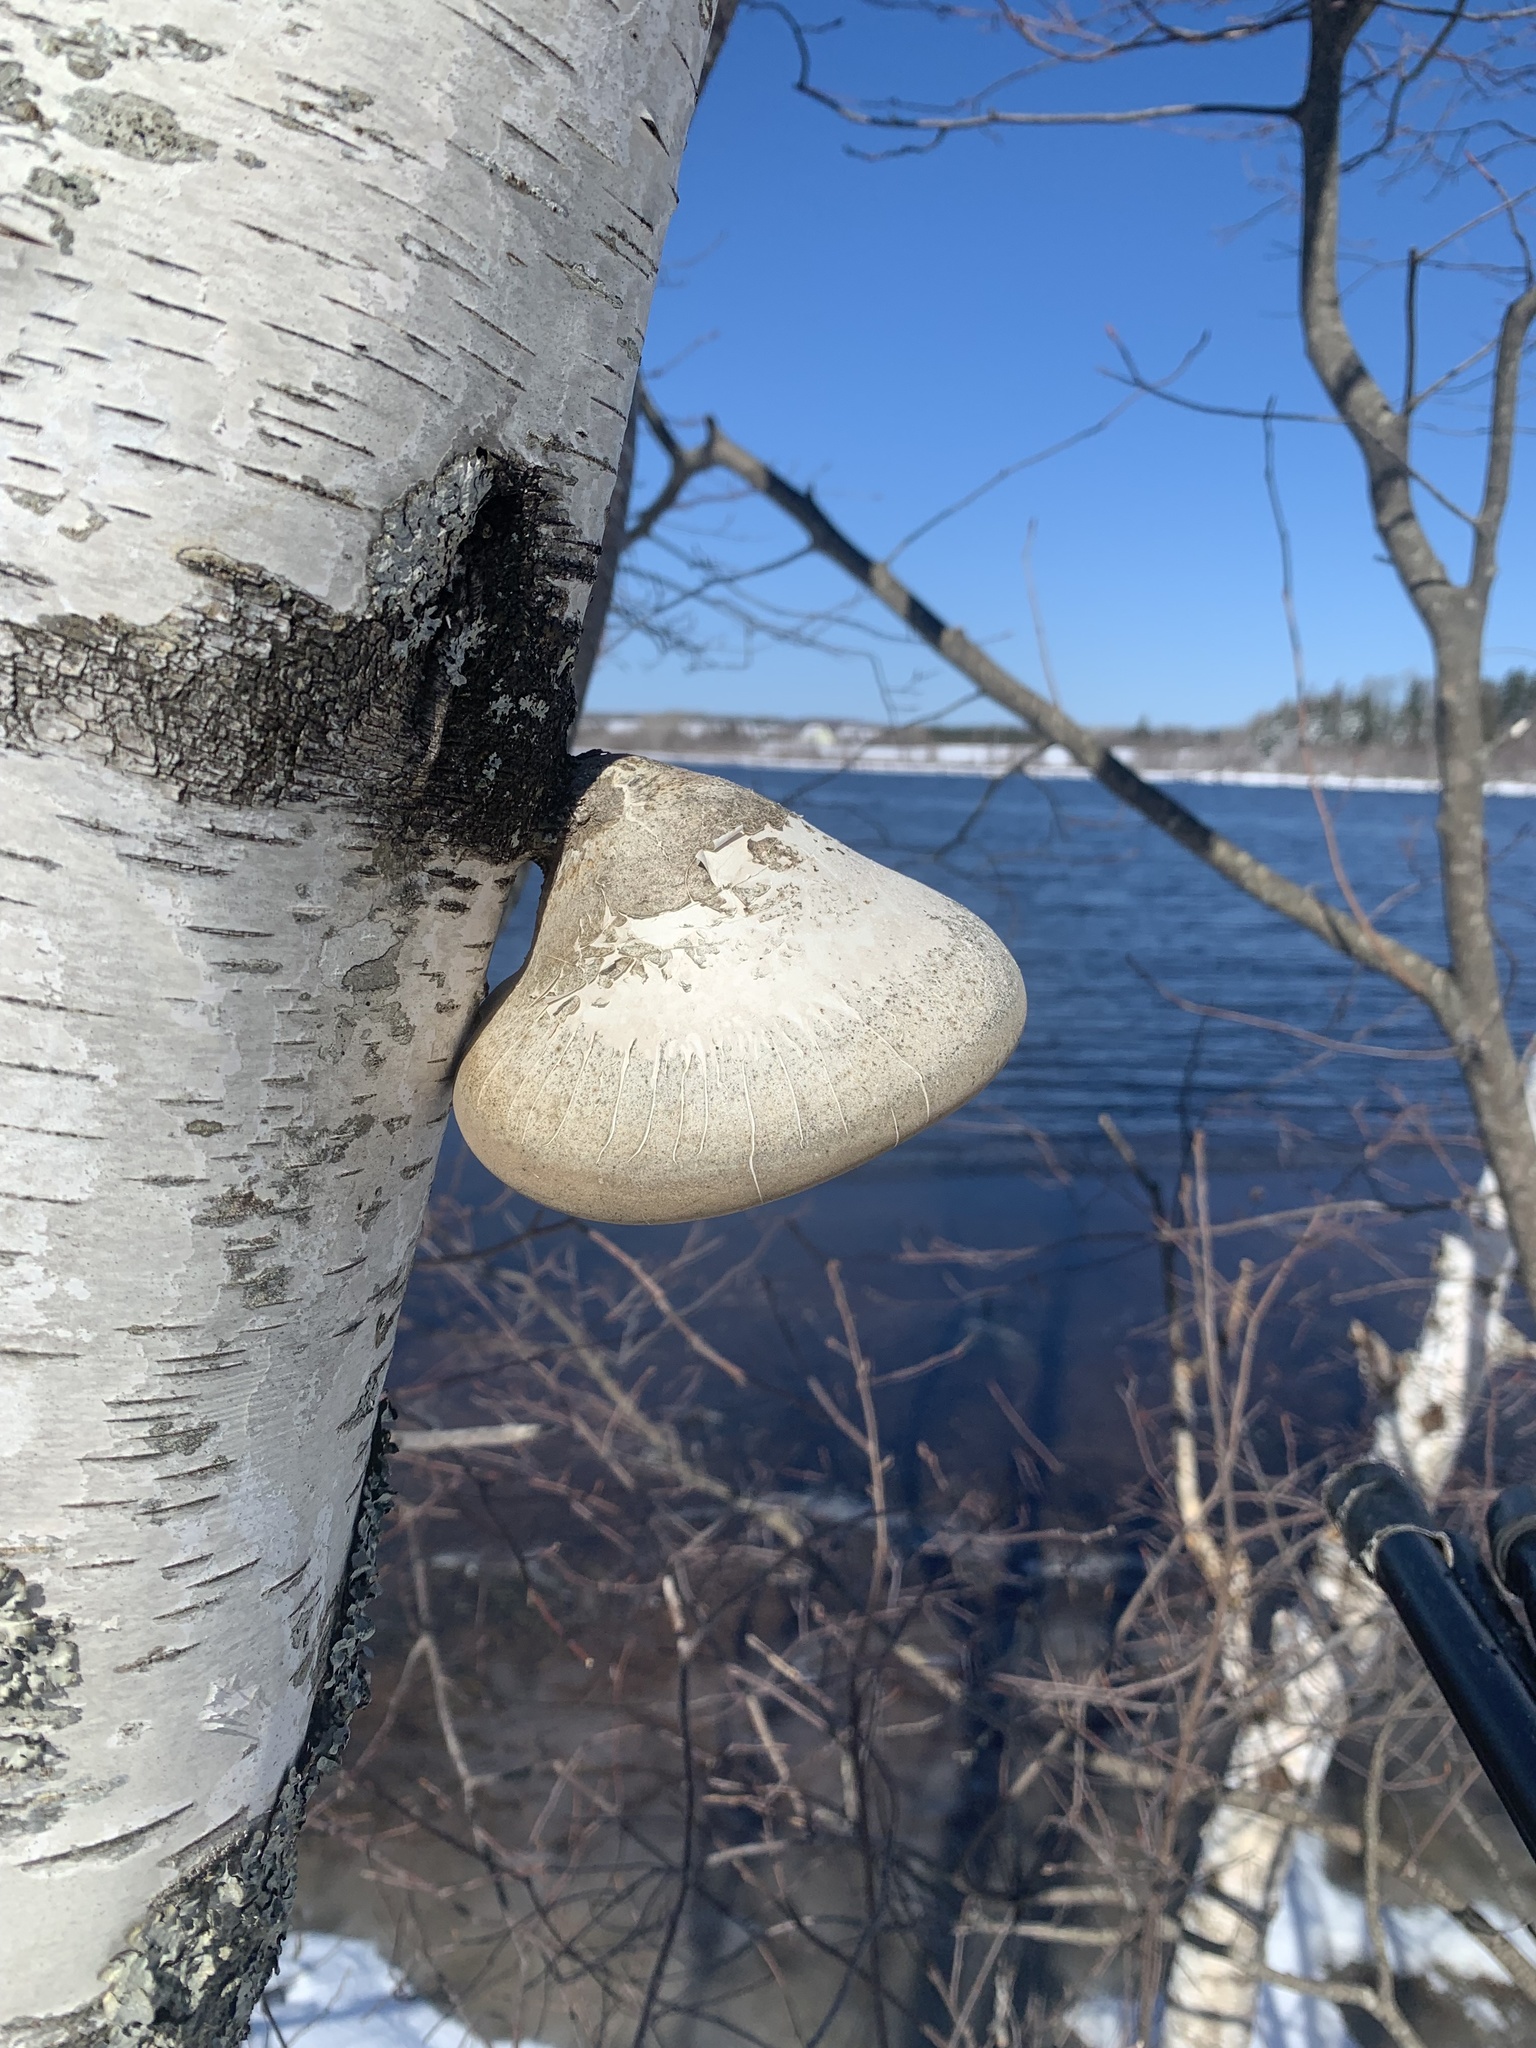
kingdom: Fungi
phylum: Basidiomycota
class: Agaricomycetes
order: Polyporales
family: Fomitopsidaceae
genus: Fomitopsis
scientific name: Fomitopsis betulina
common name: Birch polypore
